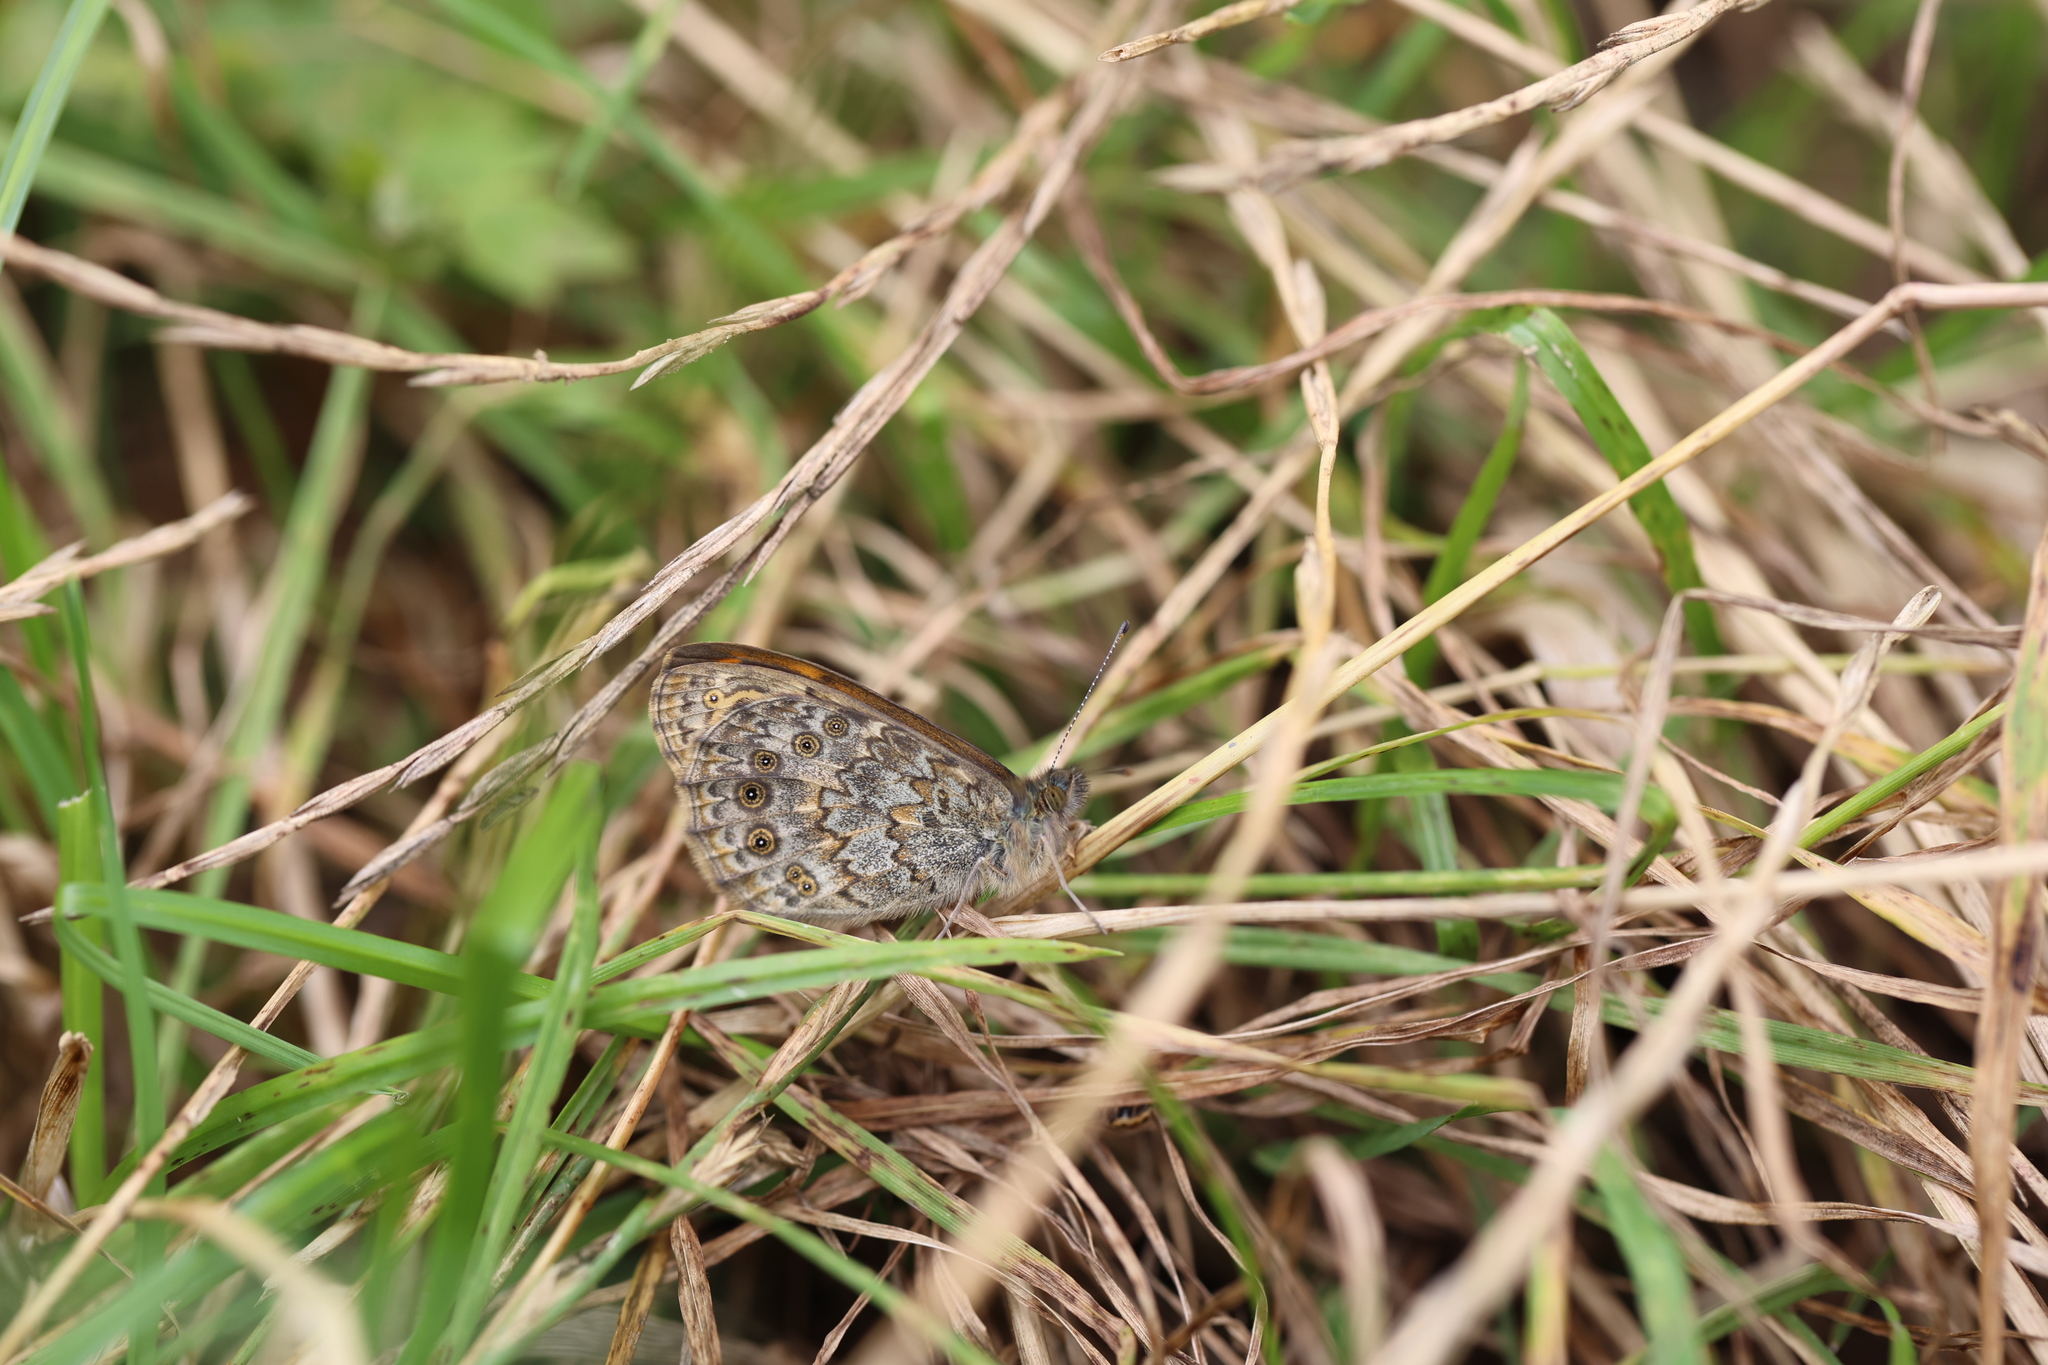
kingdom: Animalia
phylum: Arthropoda
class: Insecta
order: Lepidoptera
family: Nymphalidae
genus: Pararge
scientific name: Pararge Lasiommata megera
